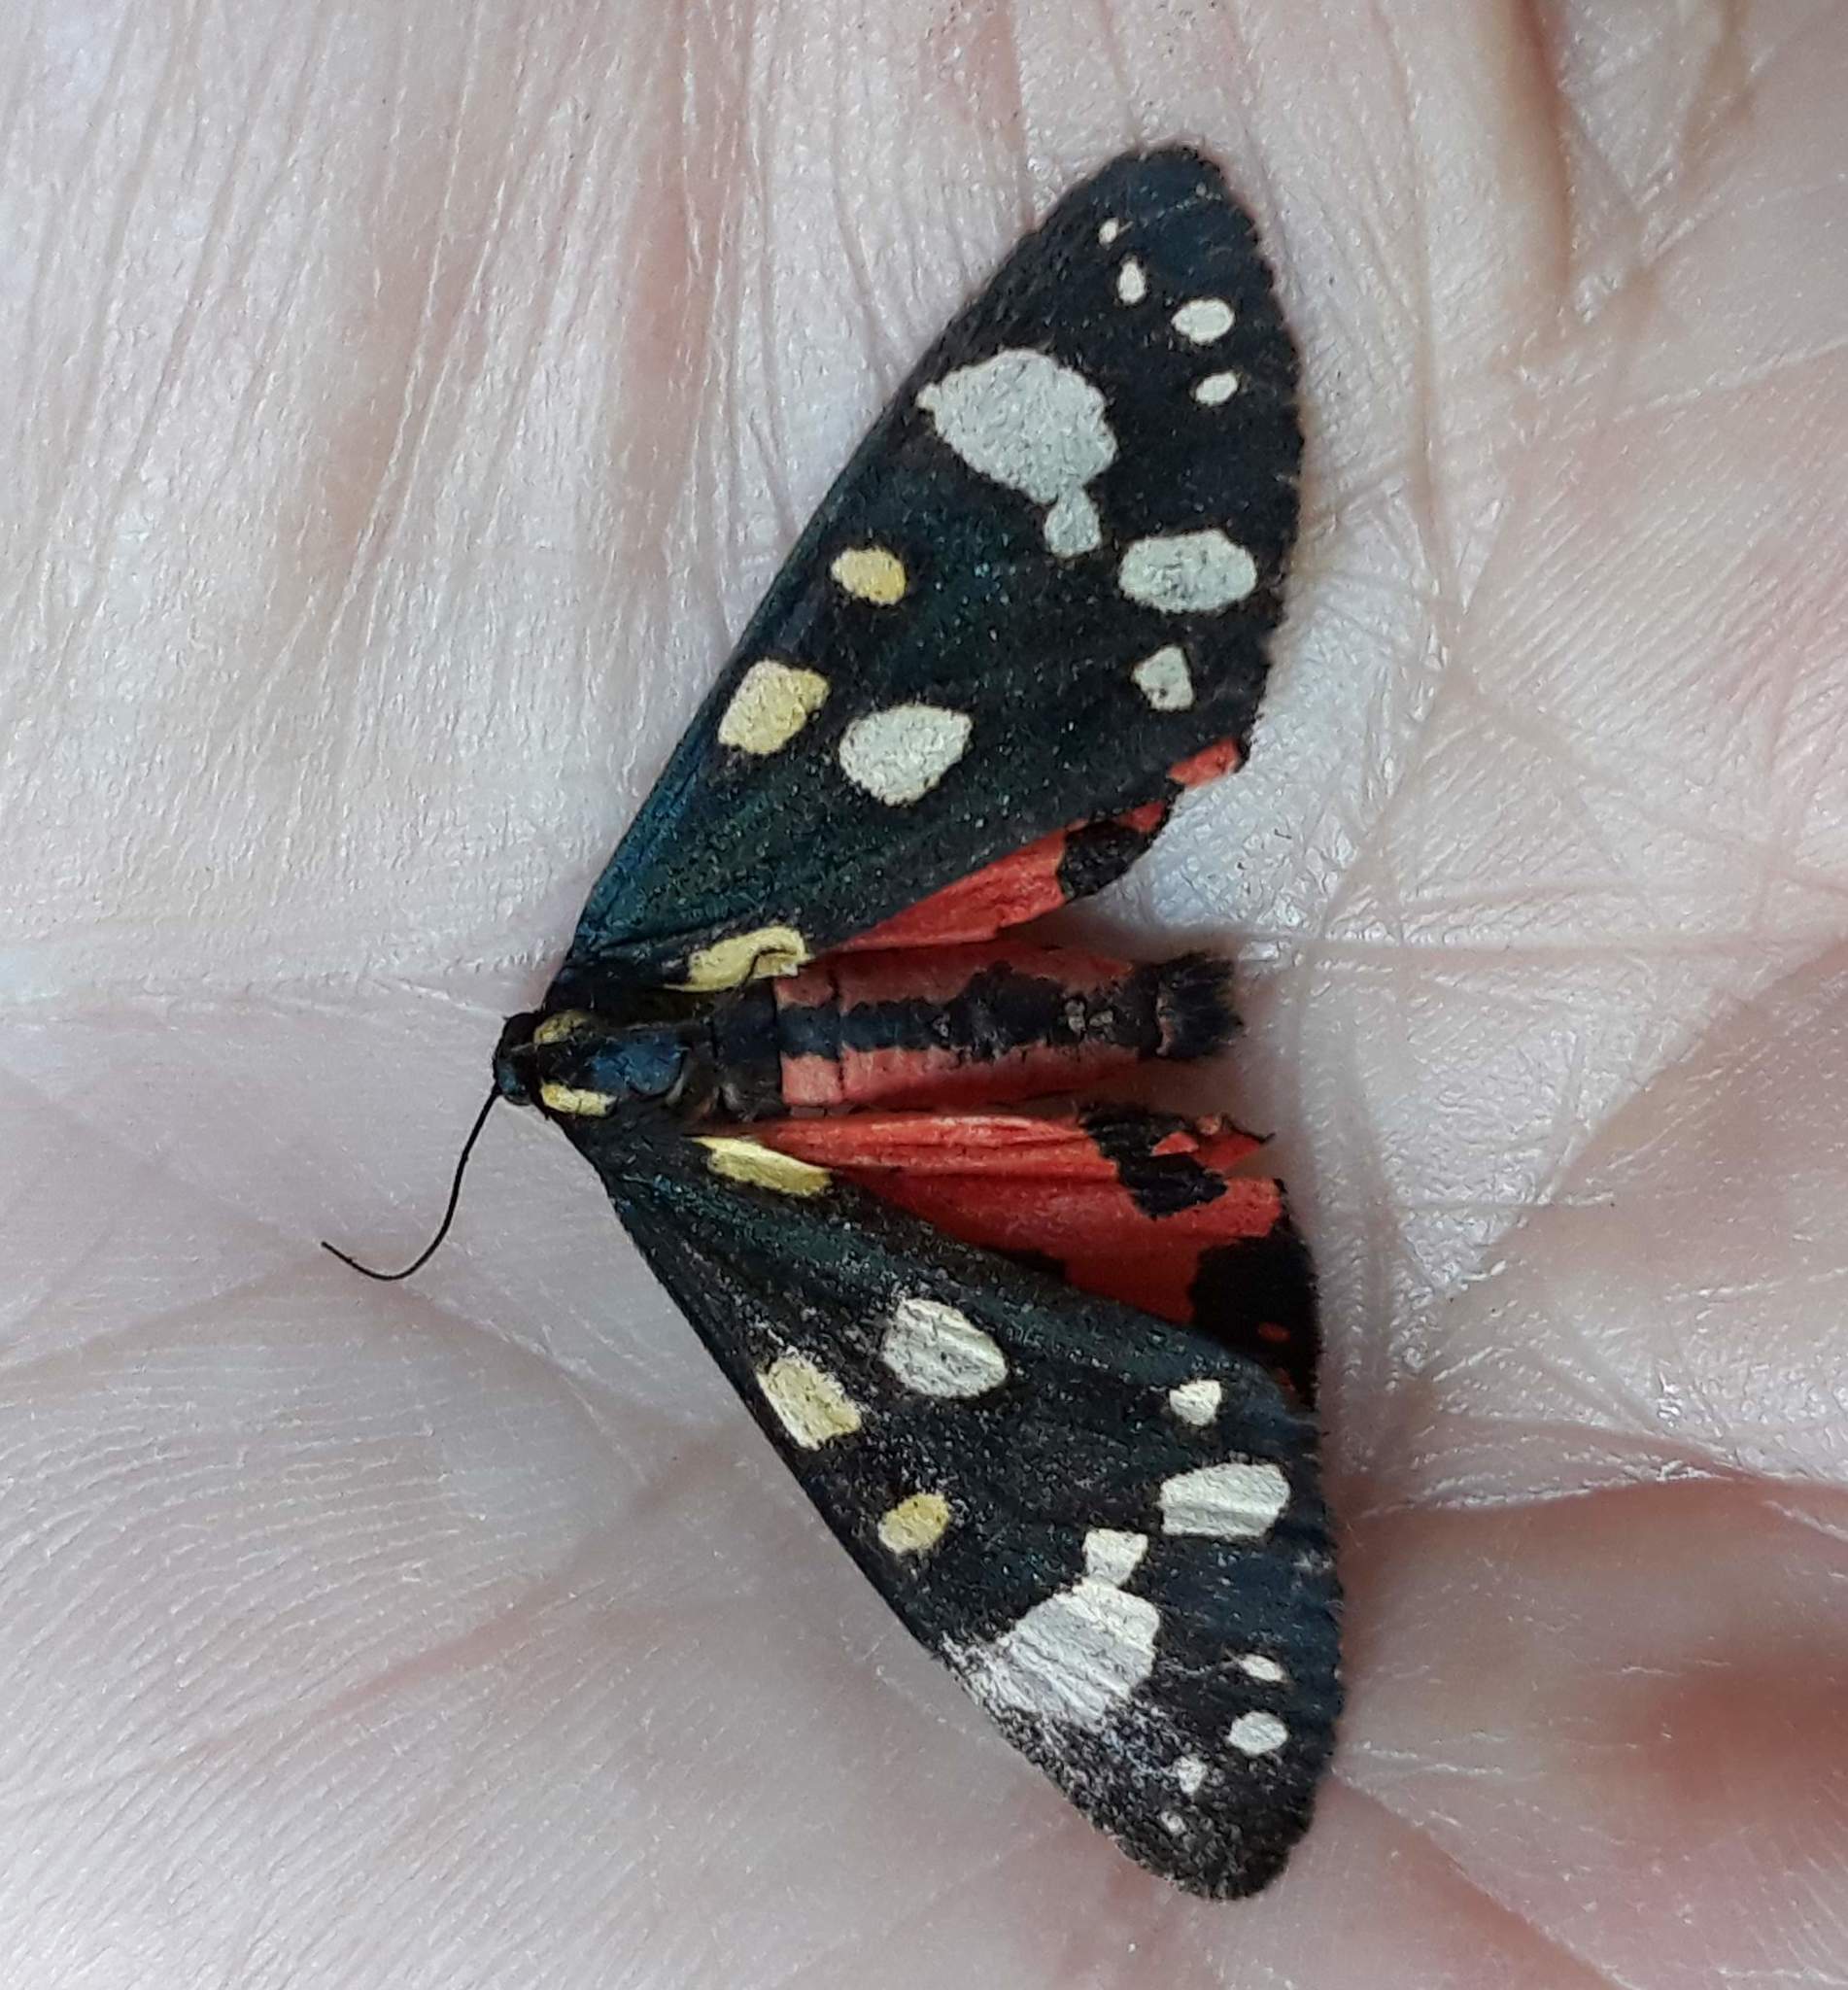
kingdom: Animalia
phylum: Arthropoda
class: Insecta
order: Lepidoptera
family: Erebidae
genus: Callimorpha
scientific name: Callimorpha dominula
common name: Scarlet tiger
